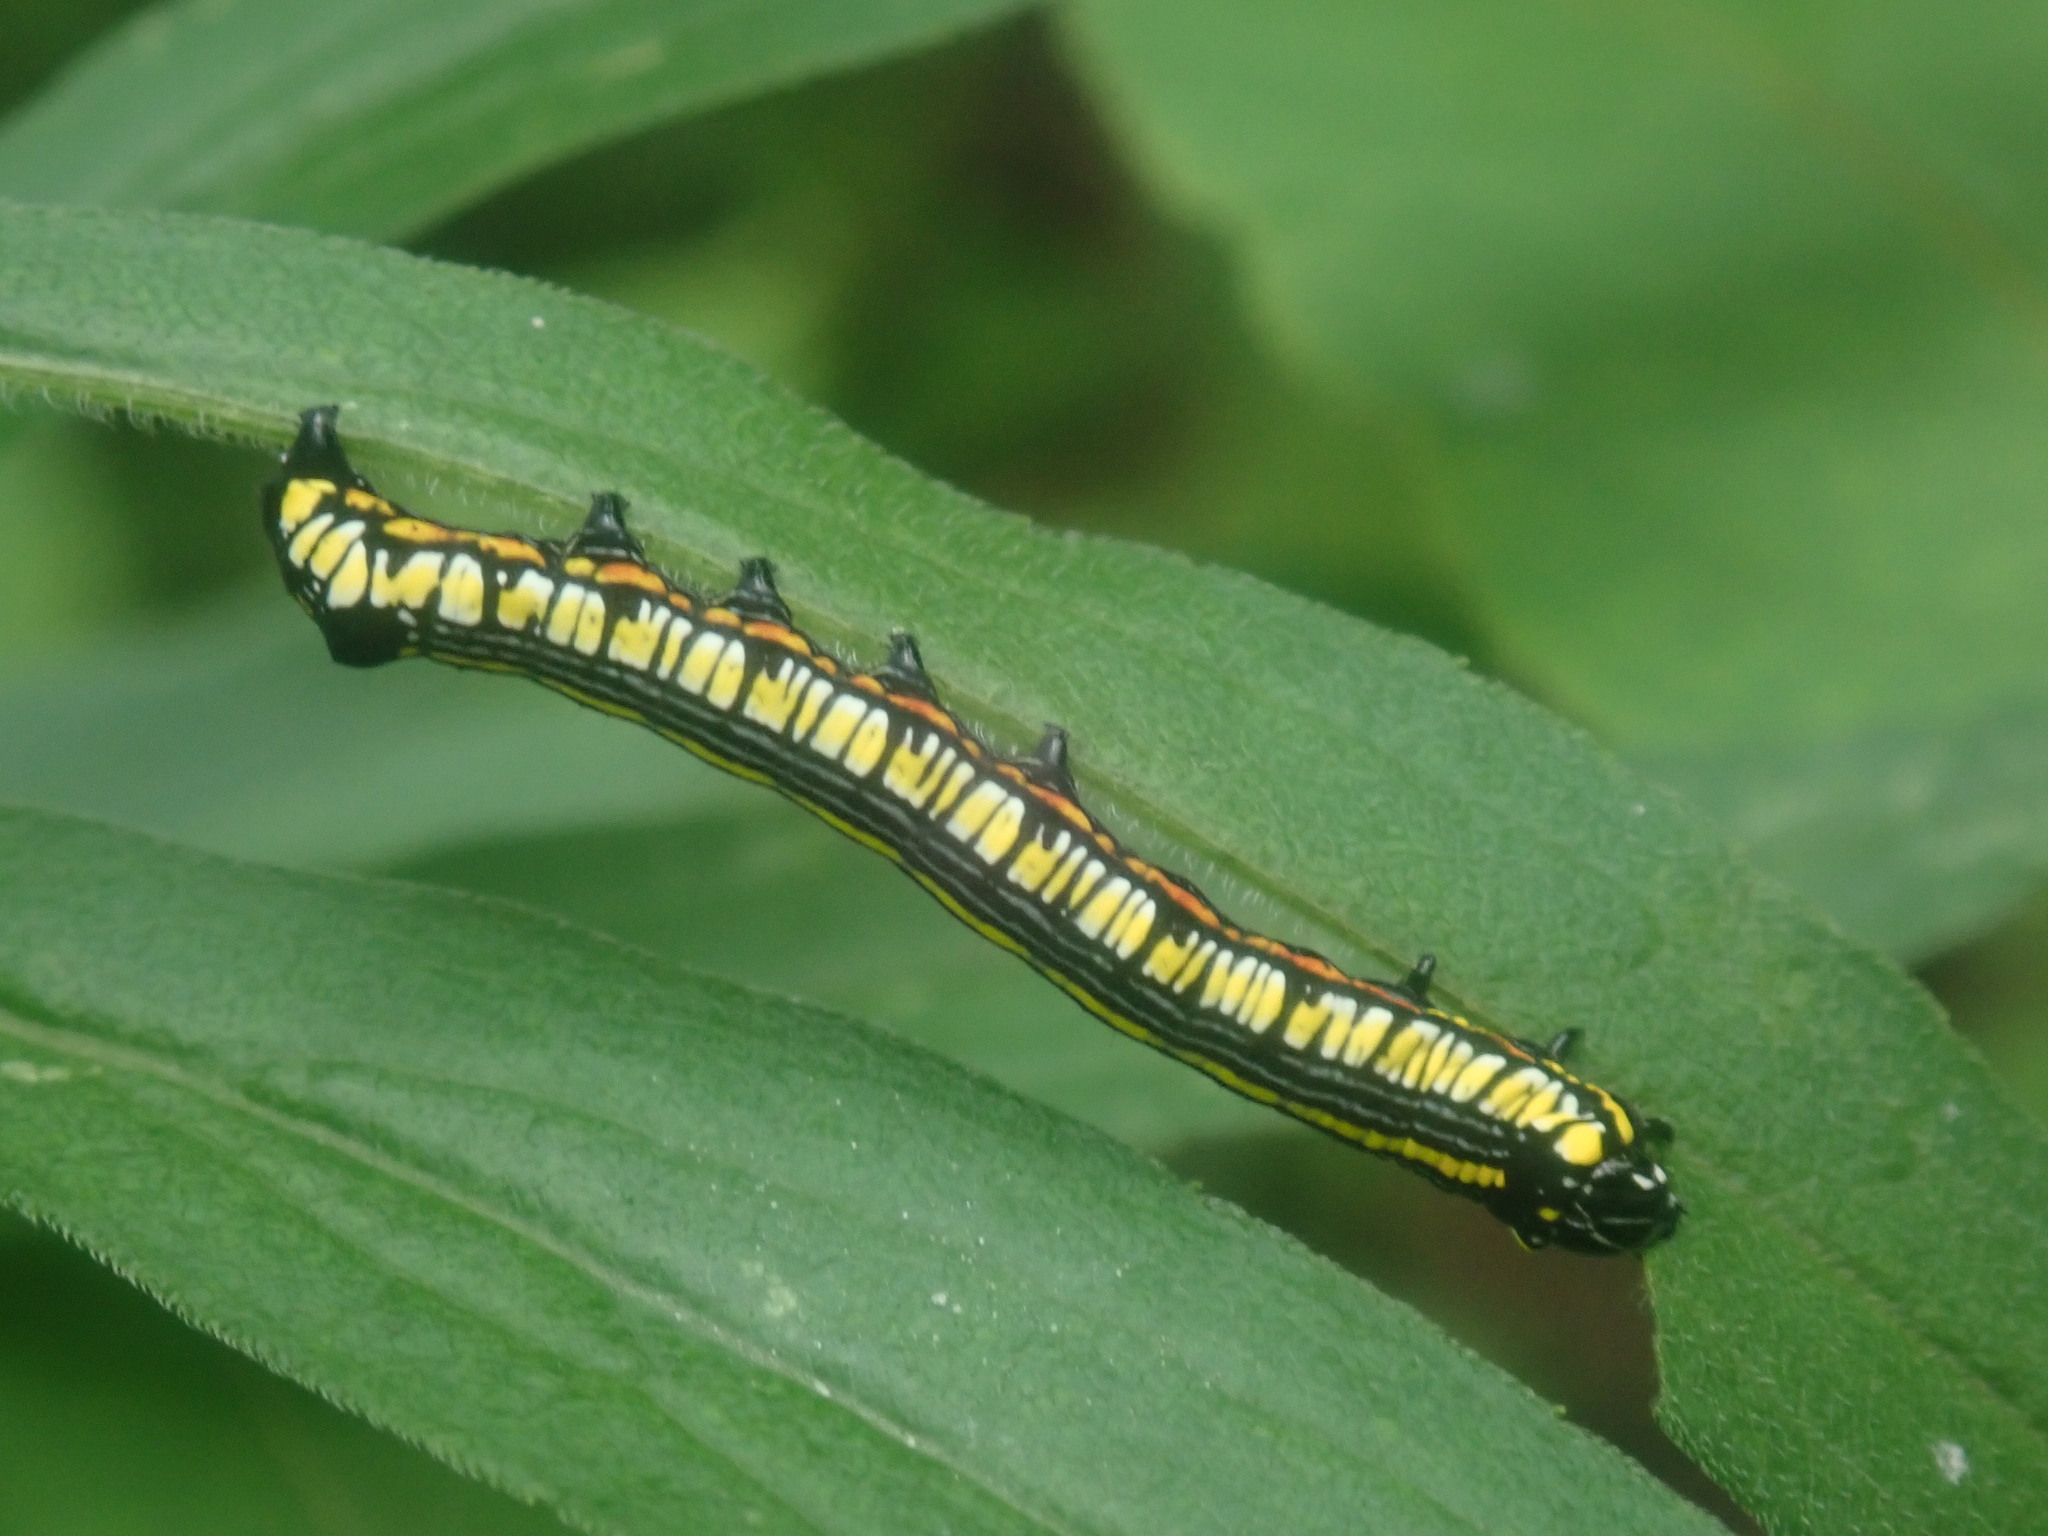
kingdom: Animalia
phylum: Arthropoda
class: Insecta
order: Lepidoptera
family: Noctuidae
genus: Cucullia
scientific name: Cucullia convexipennis
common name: Brown-hooded owlet
